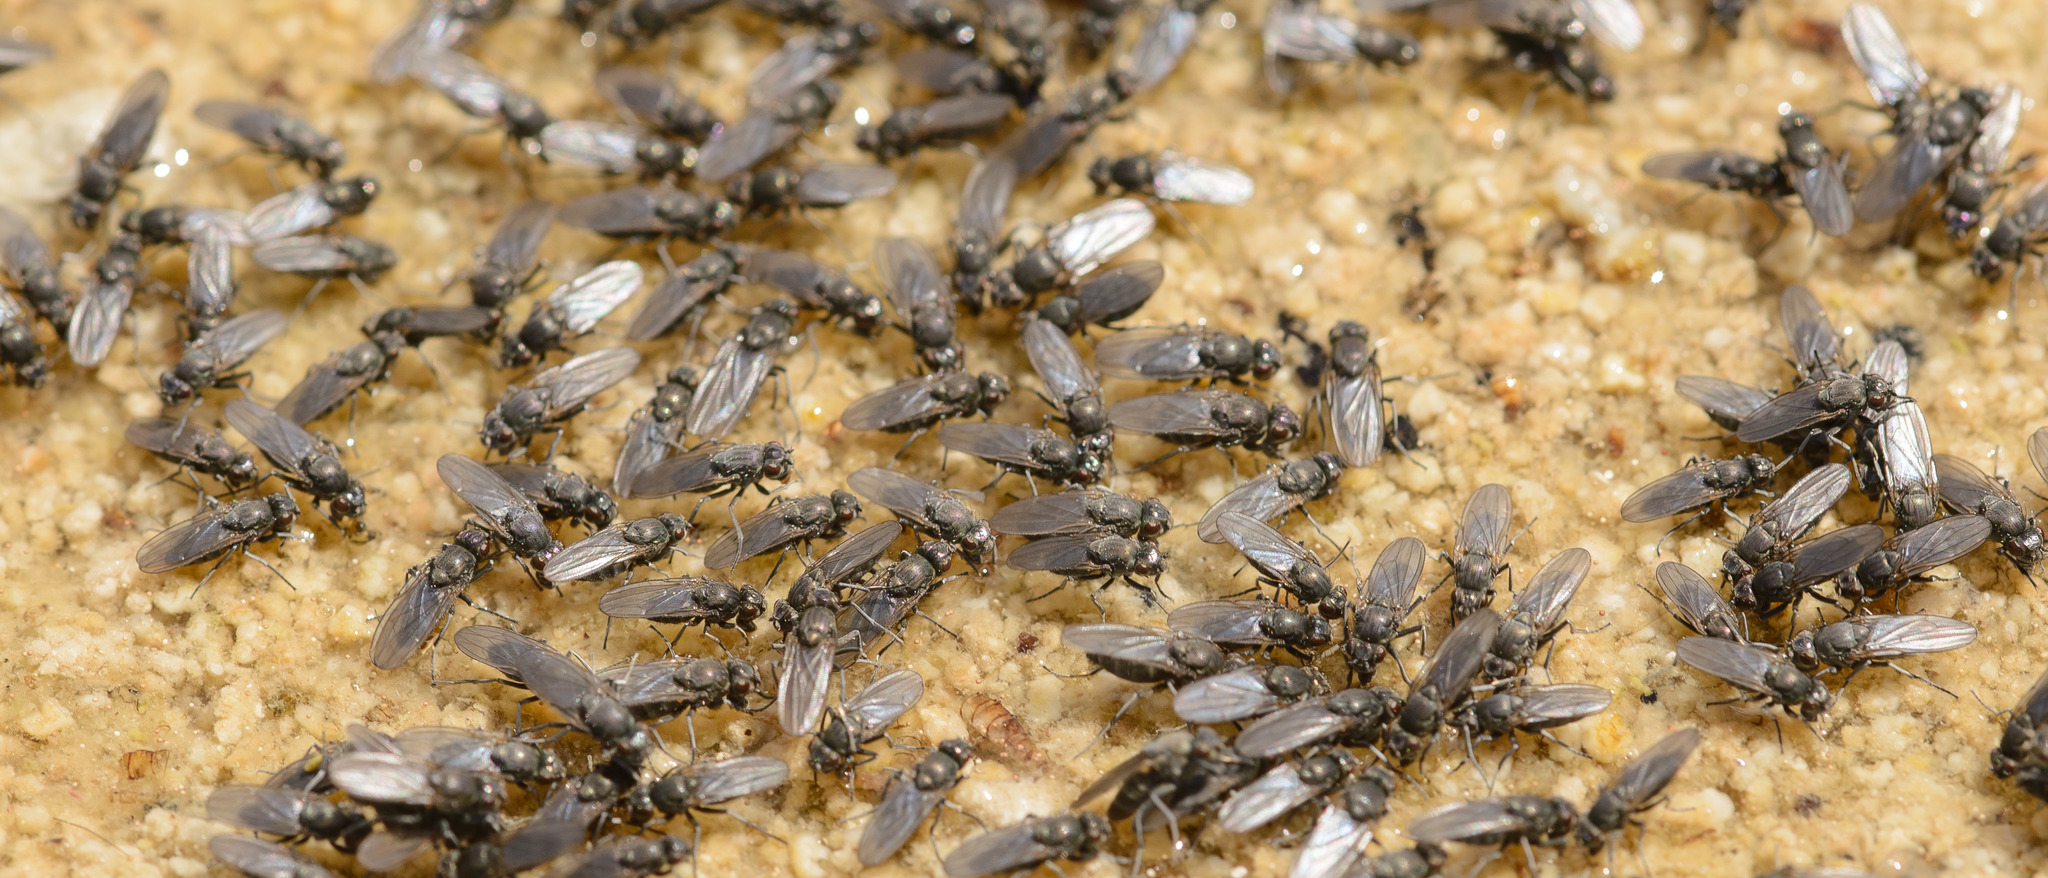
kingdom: Animalia
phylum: Arthropoda
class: Insecta
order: Diptera
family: Ephydridae
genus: Ephydra
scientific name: Ephydra gracilis
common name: Shore fly
